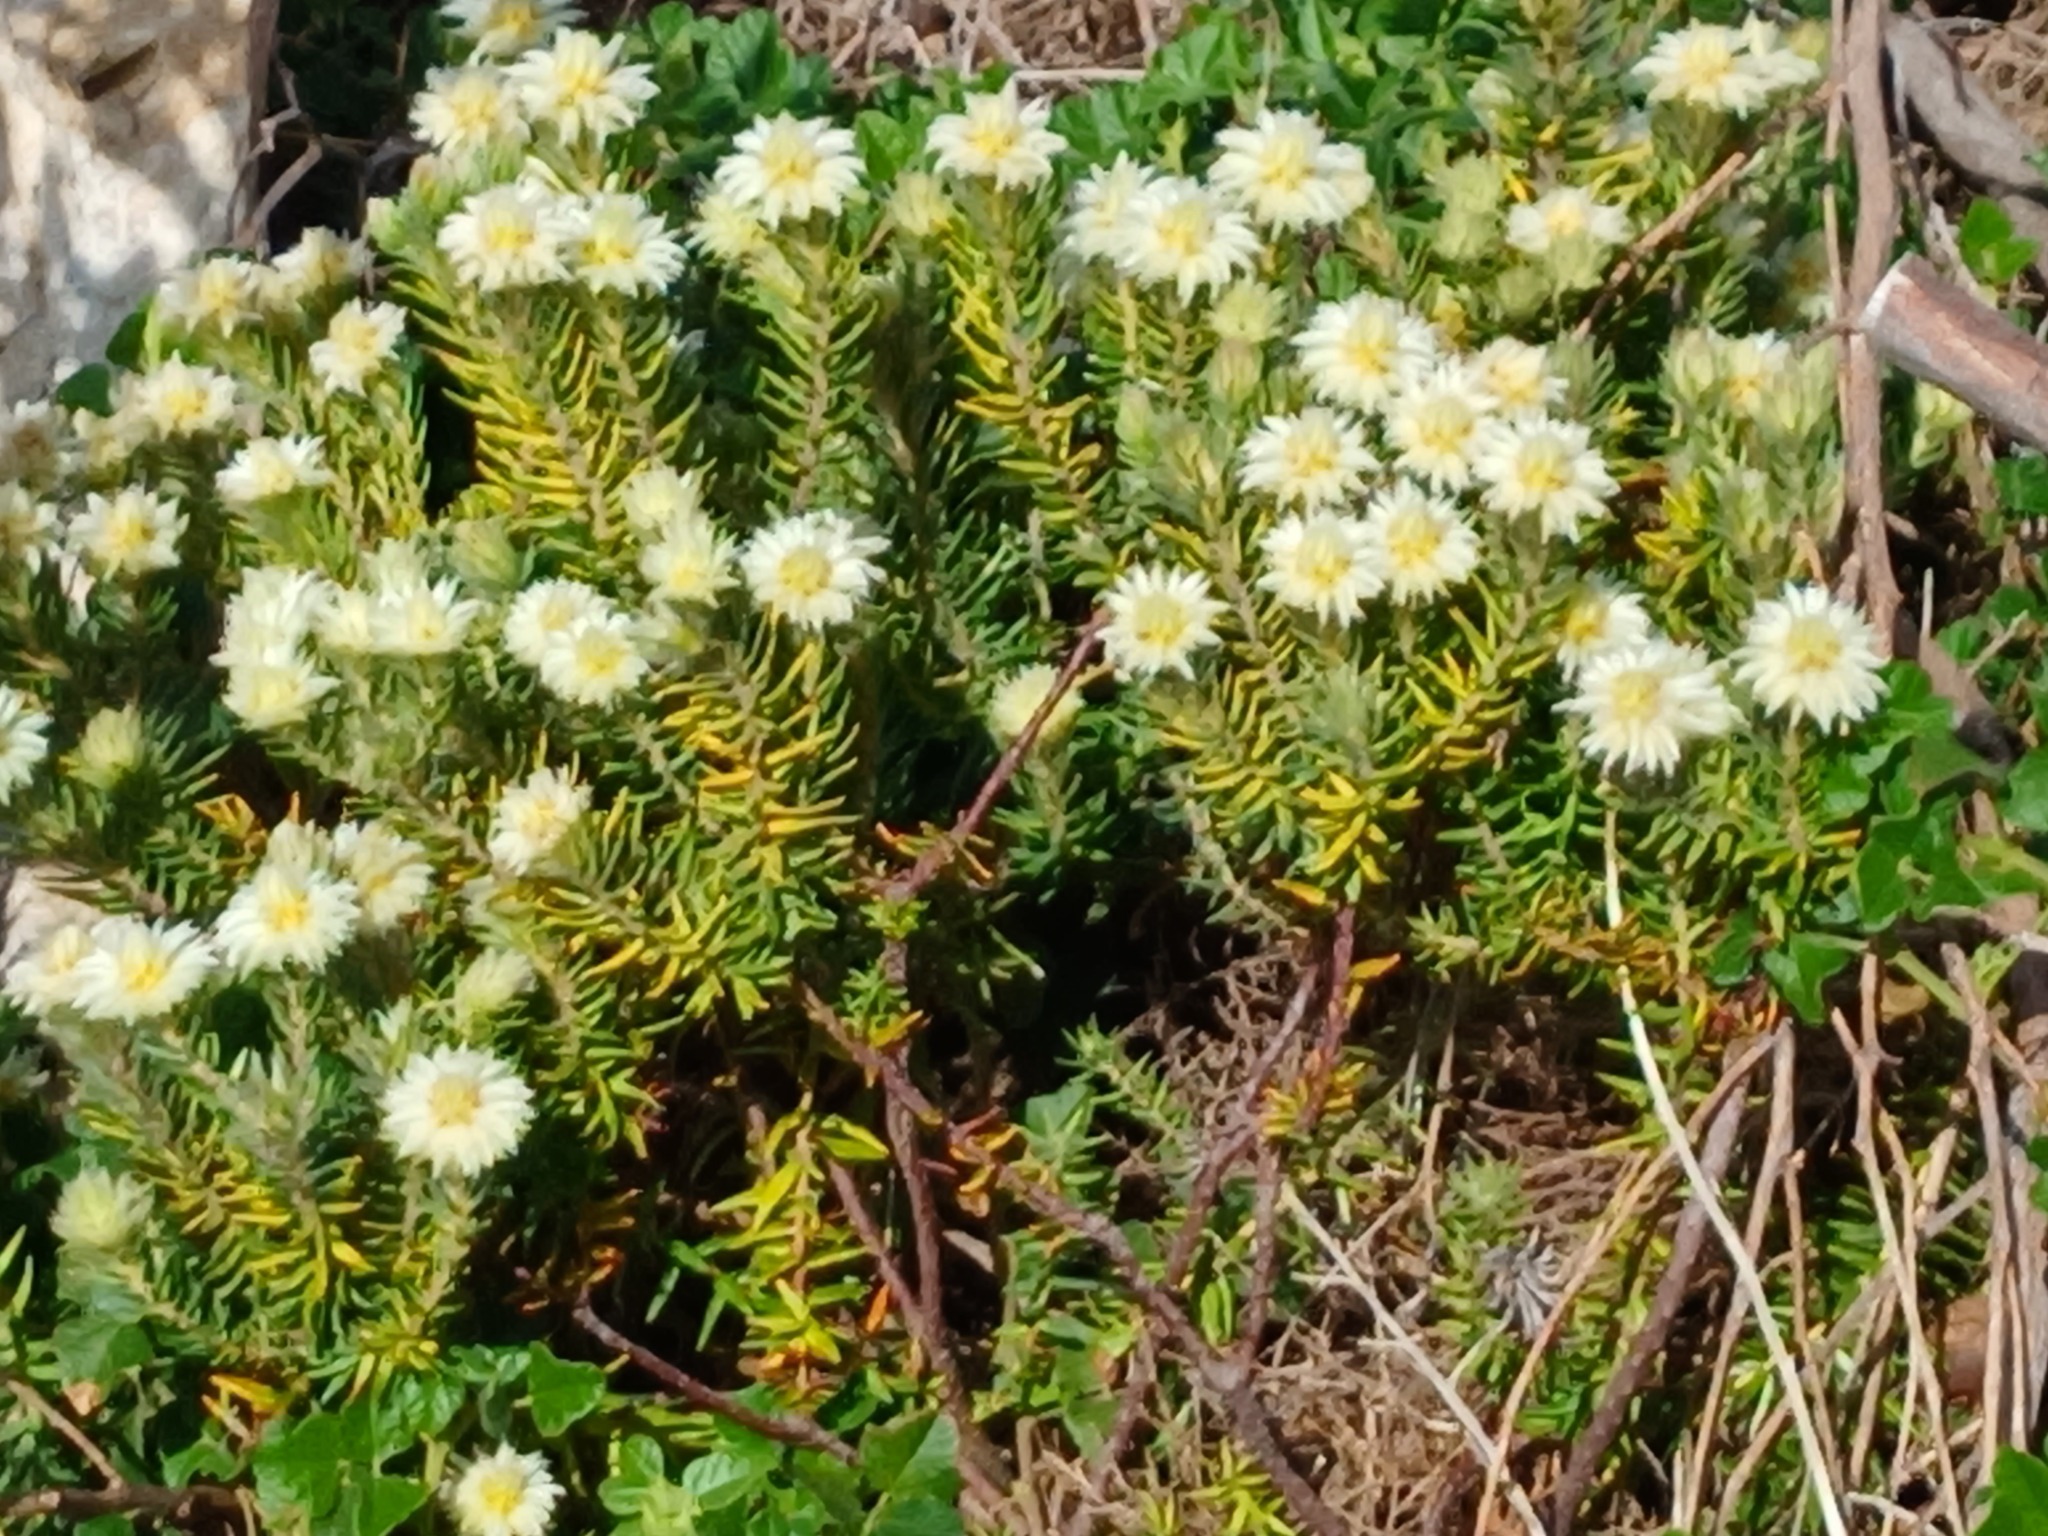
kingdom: Plantae
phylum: Tracheophyta
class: Magnoliopsida
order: Rosales
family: Rhamnaceae
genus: Phylica
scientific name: Phylica plumosa
